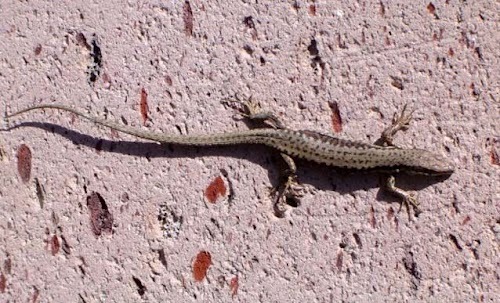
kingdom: Animalia
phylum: Chordata
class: Squamata
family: Lacertidae
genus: Darevskia
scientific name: Darevskia raddei
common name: Radde's lizard
